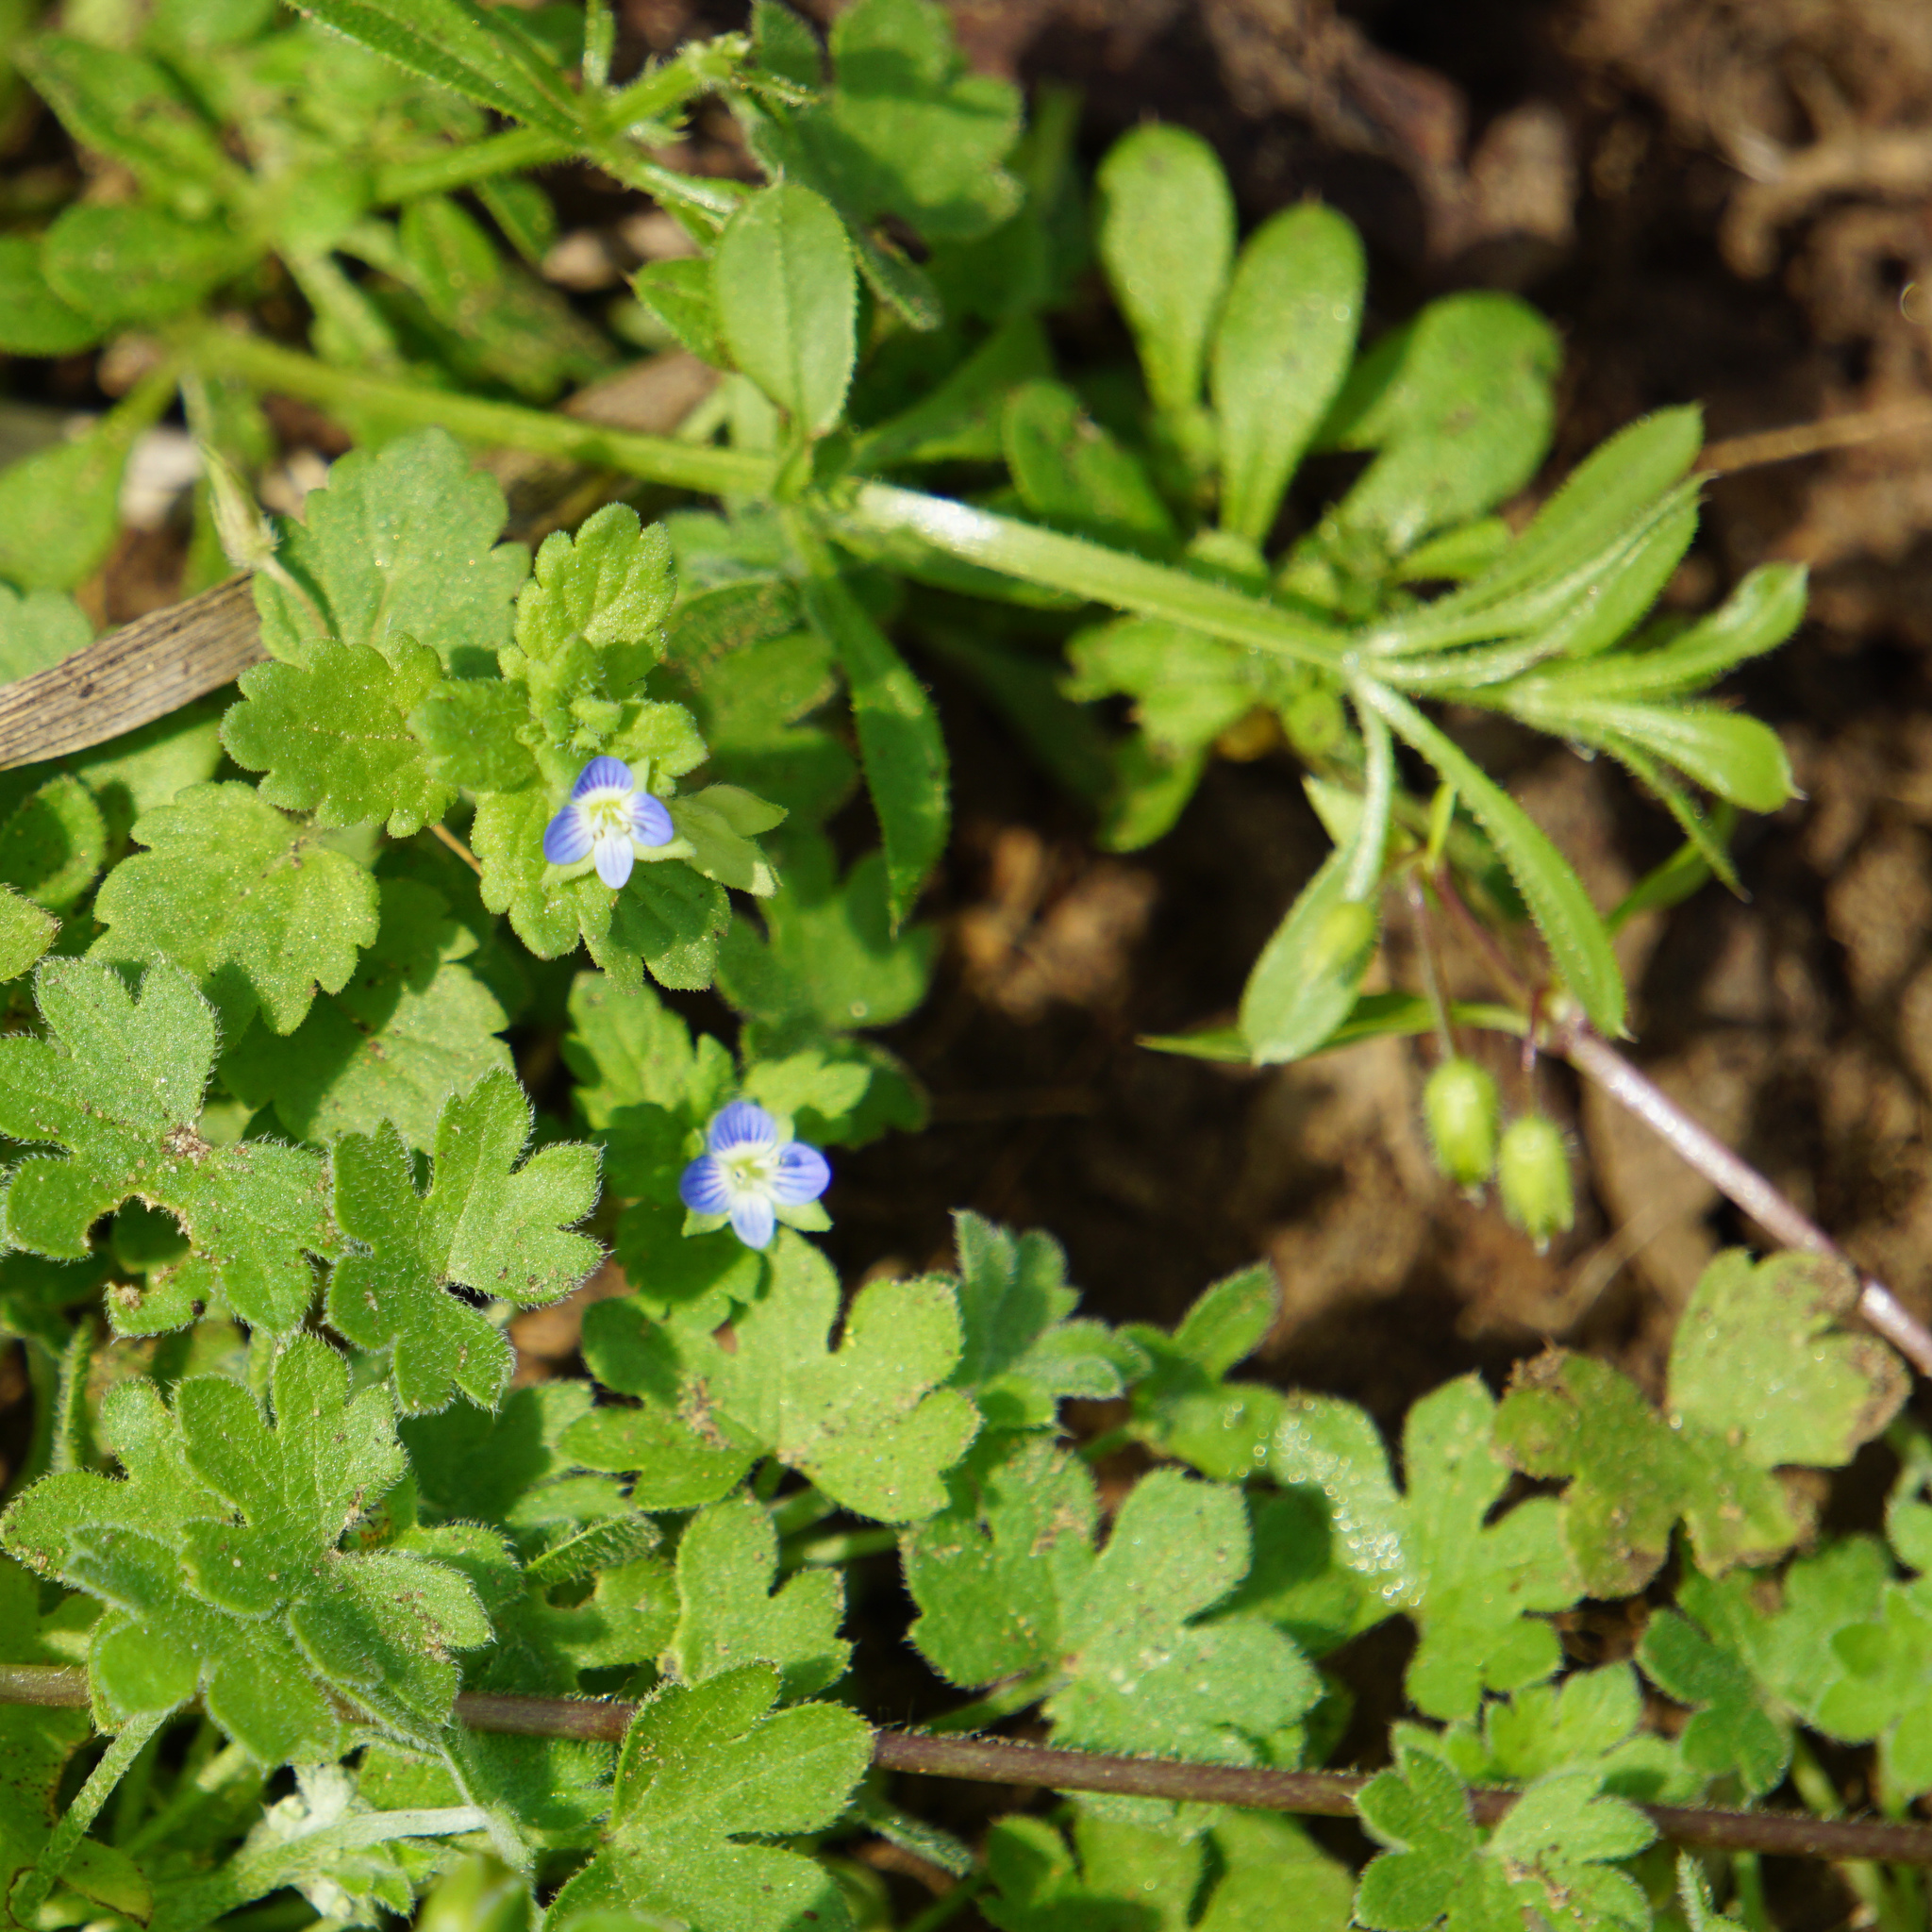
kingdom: Plantae
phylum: Tracheophyta
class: Magnoliopsida
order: Lamiales
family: Plantaginaceae
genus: Veronica
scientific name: Veronica persica
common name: Common field-speedwell
